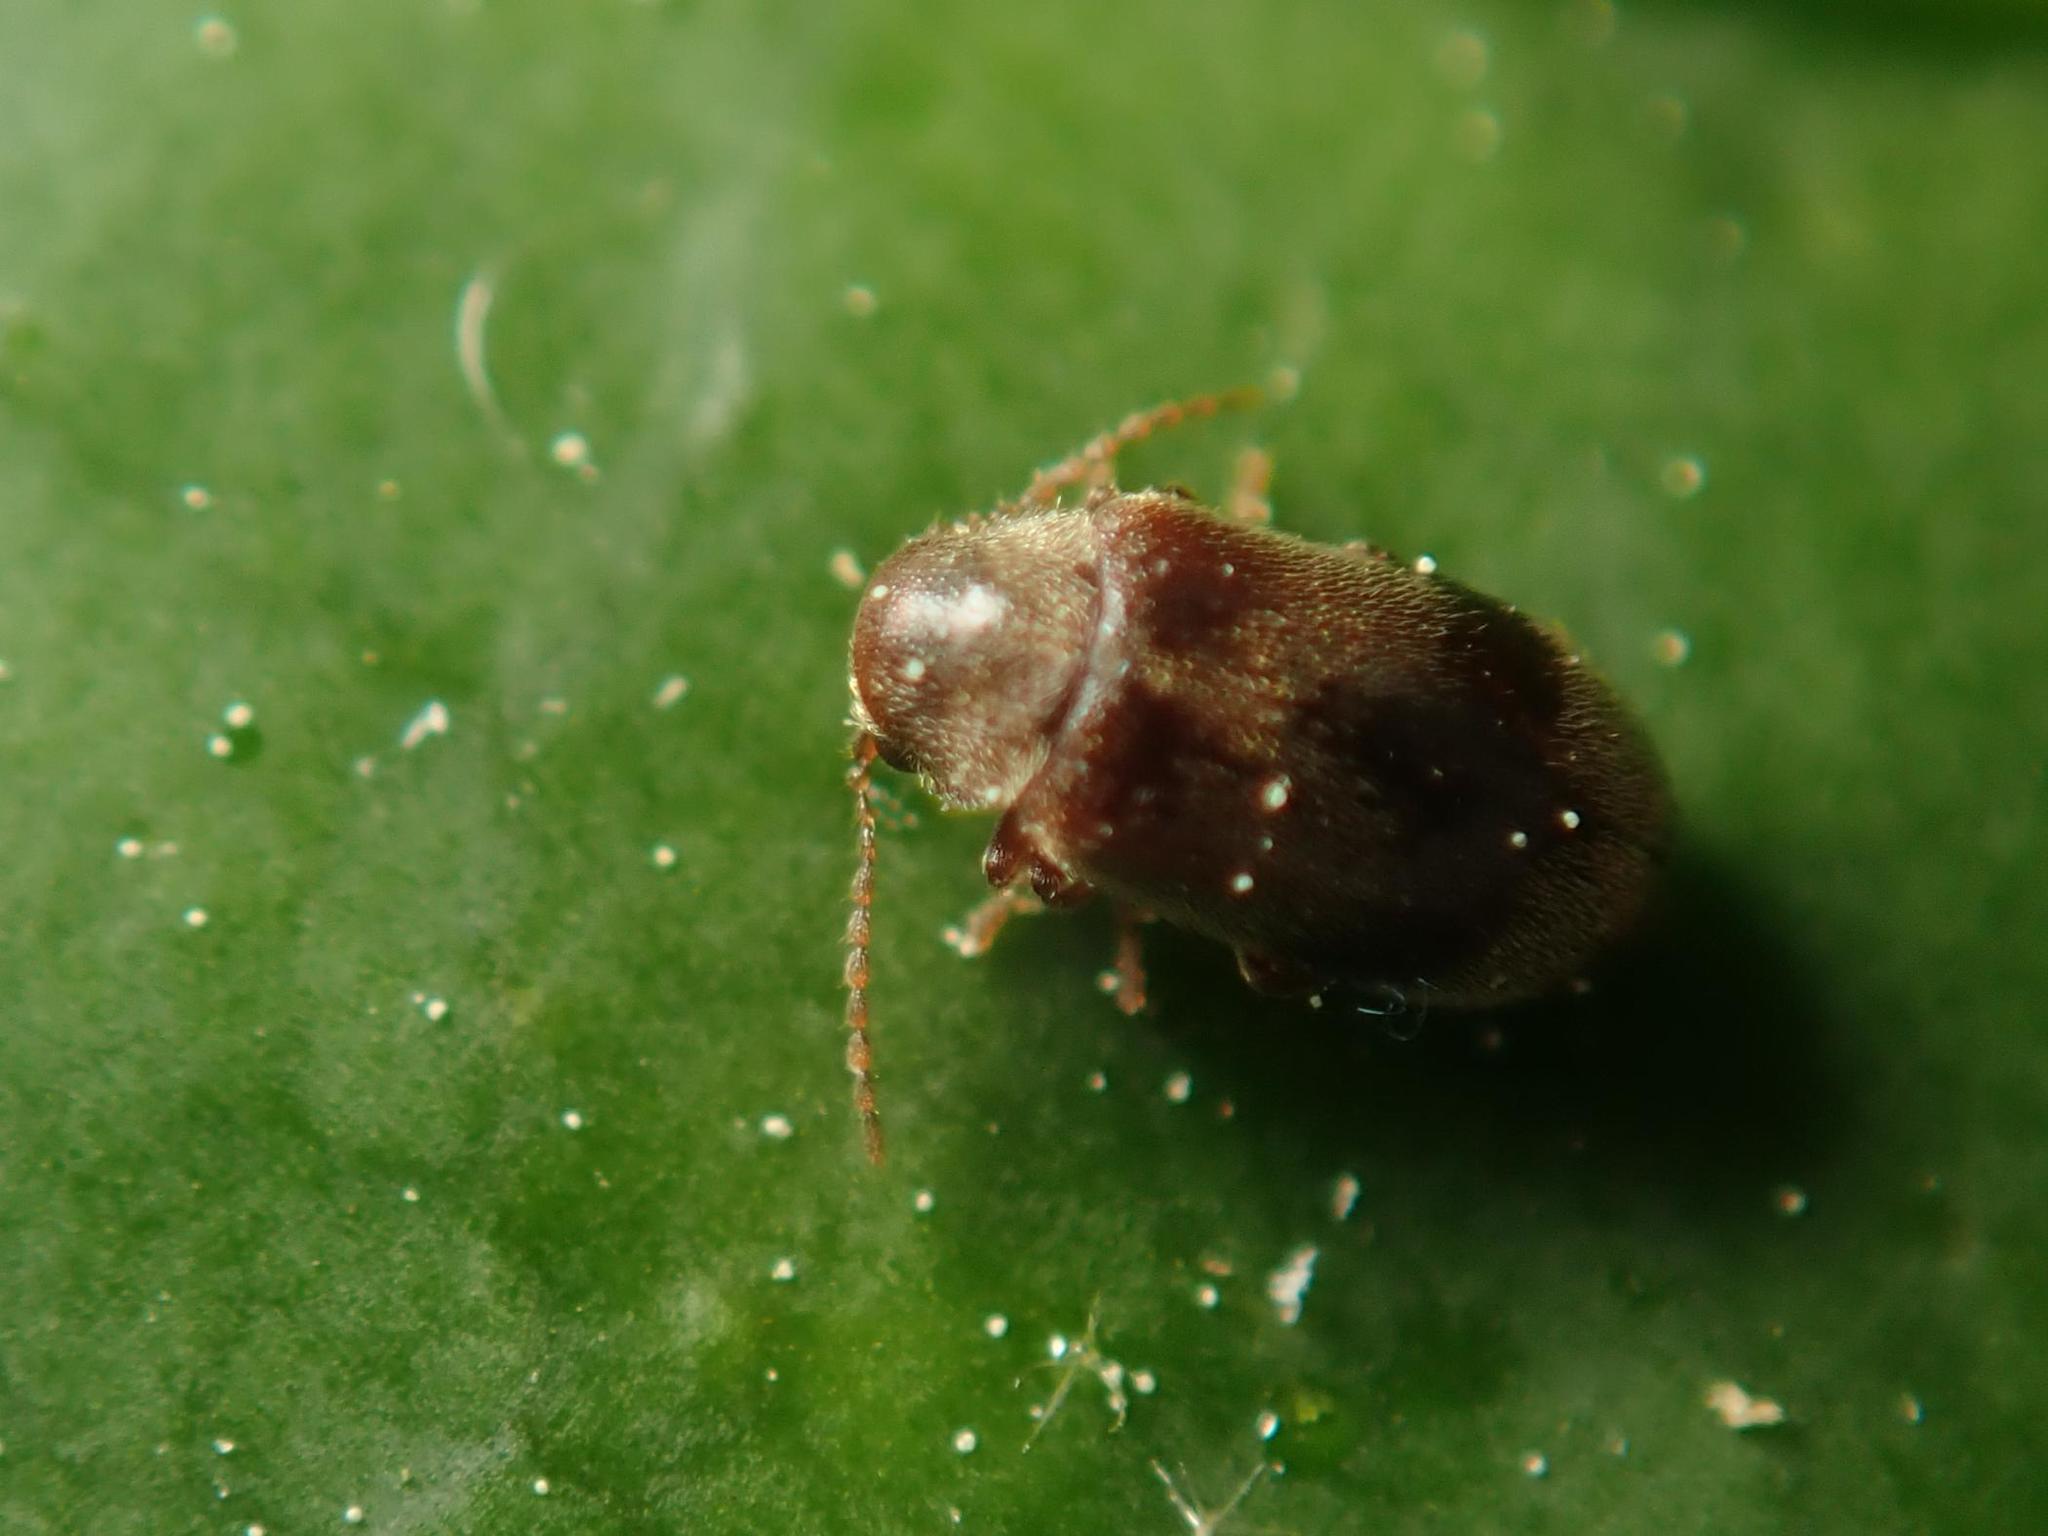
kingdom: Animalia
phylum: Arthropoda
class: Insecta
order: Coleoptera
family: Ptinidae
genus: Ochina
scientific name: Ochina ptinoides
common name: Ivy boring beetle
